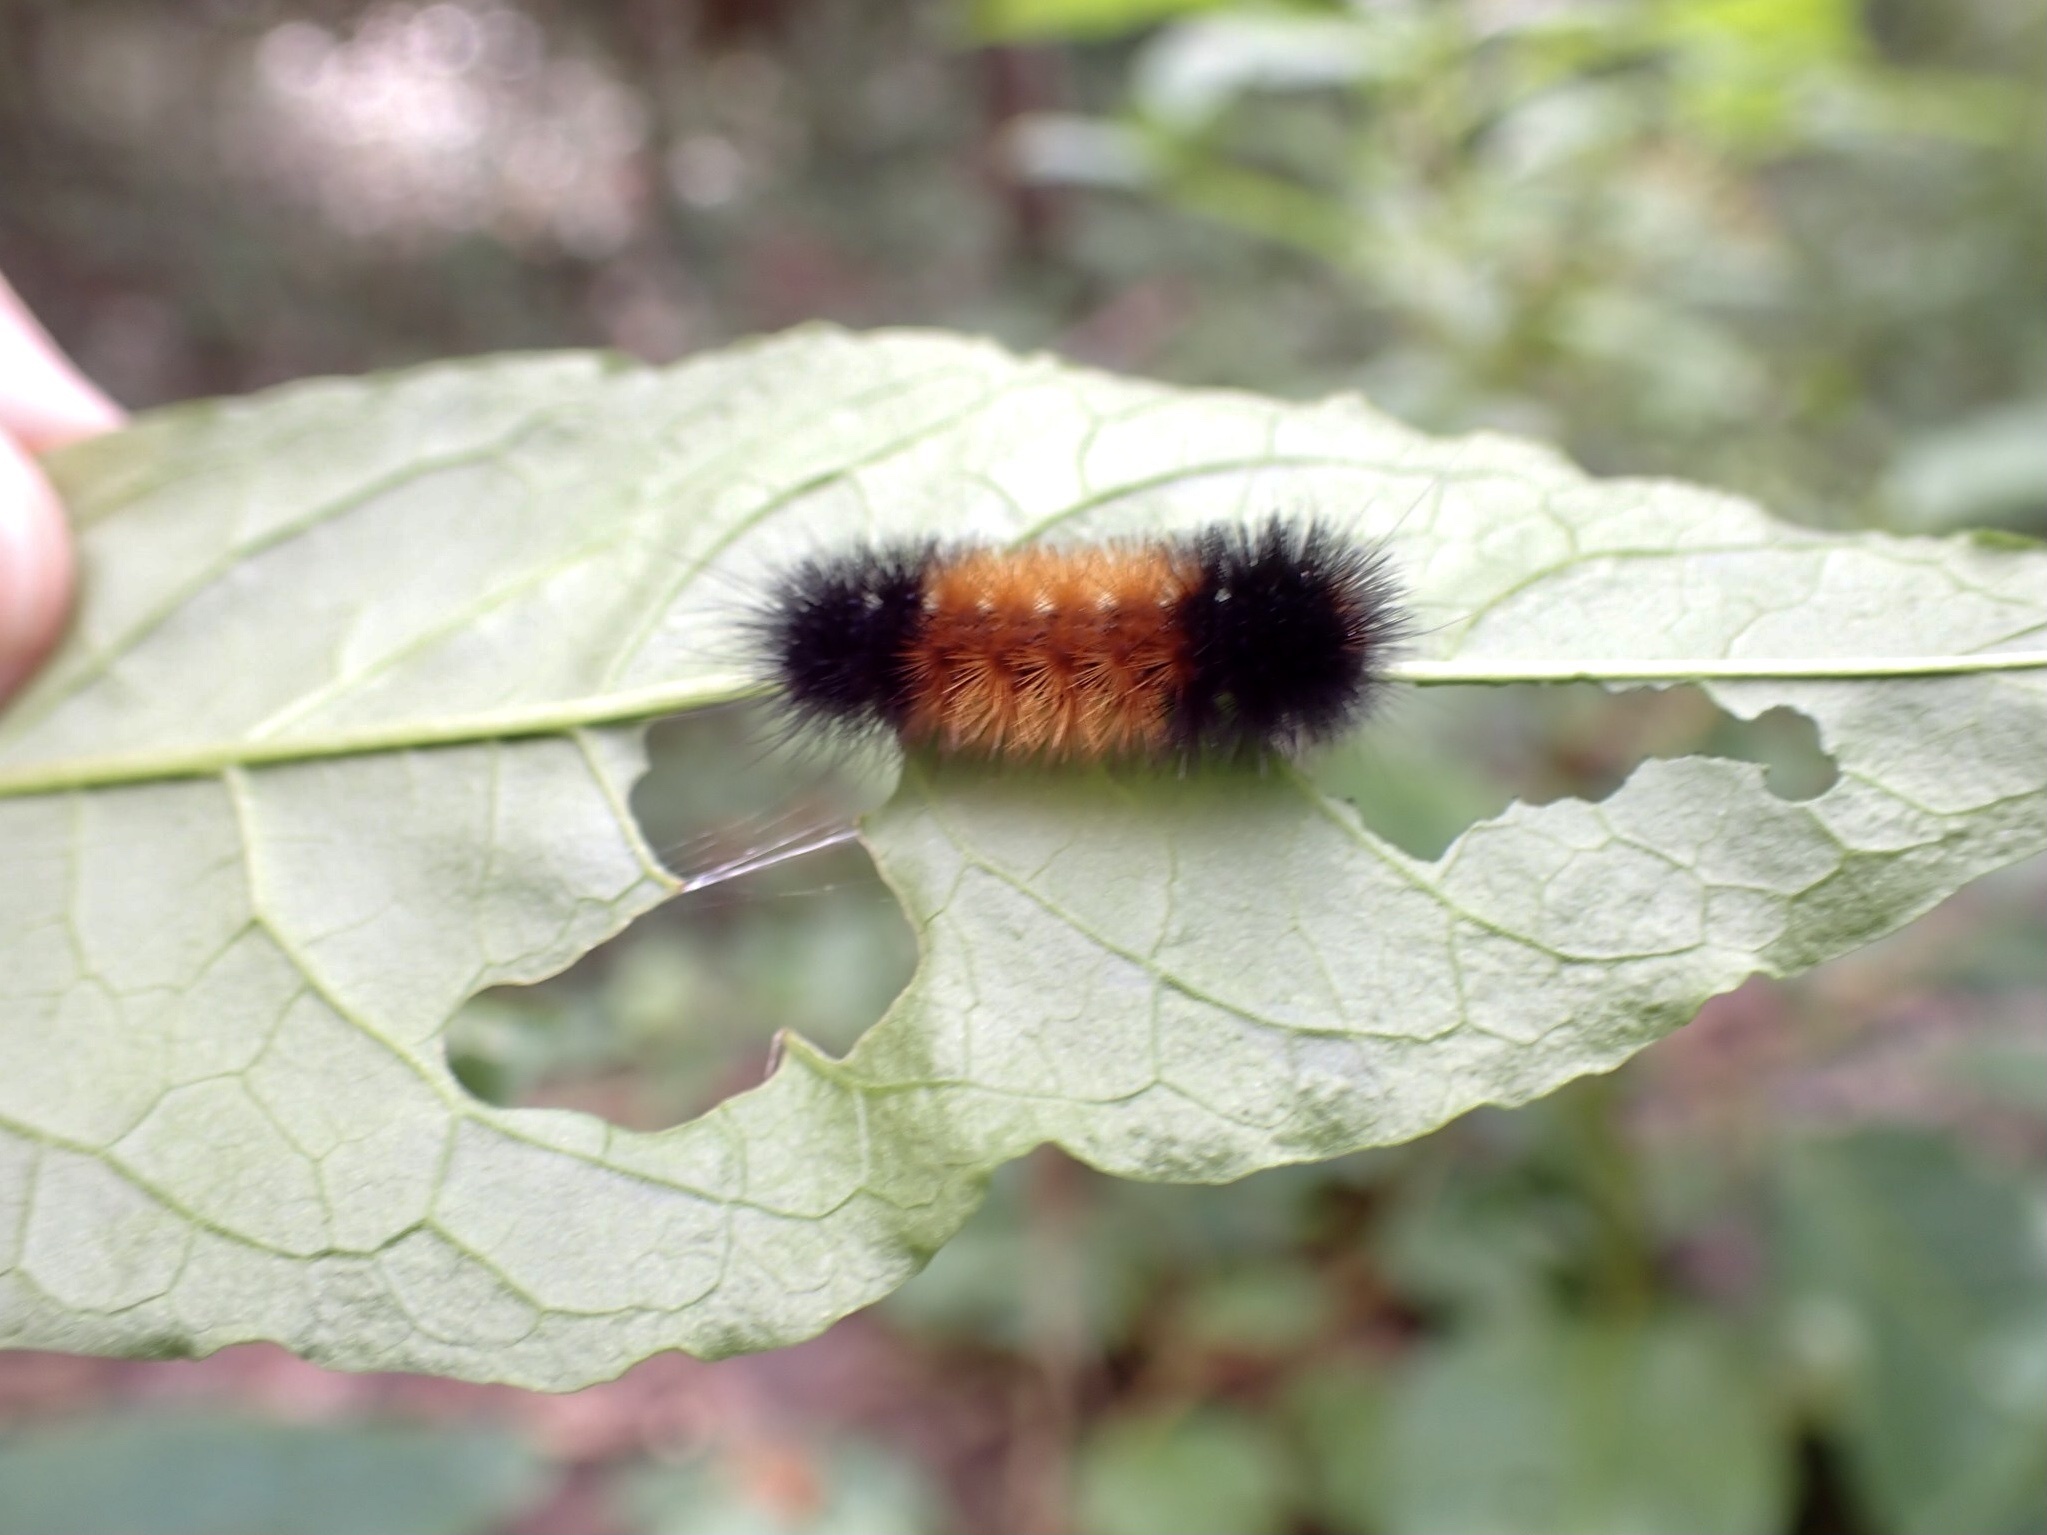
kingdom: Animalia
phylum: Arthropoda
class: Insecta
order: Lepidoptera
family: Erebidae
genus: Pyrrharctia
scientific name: Pyrrharctia isabella
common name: Isabella tiger moth
